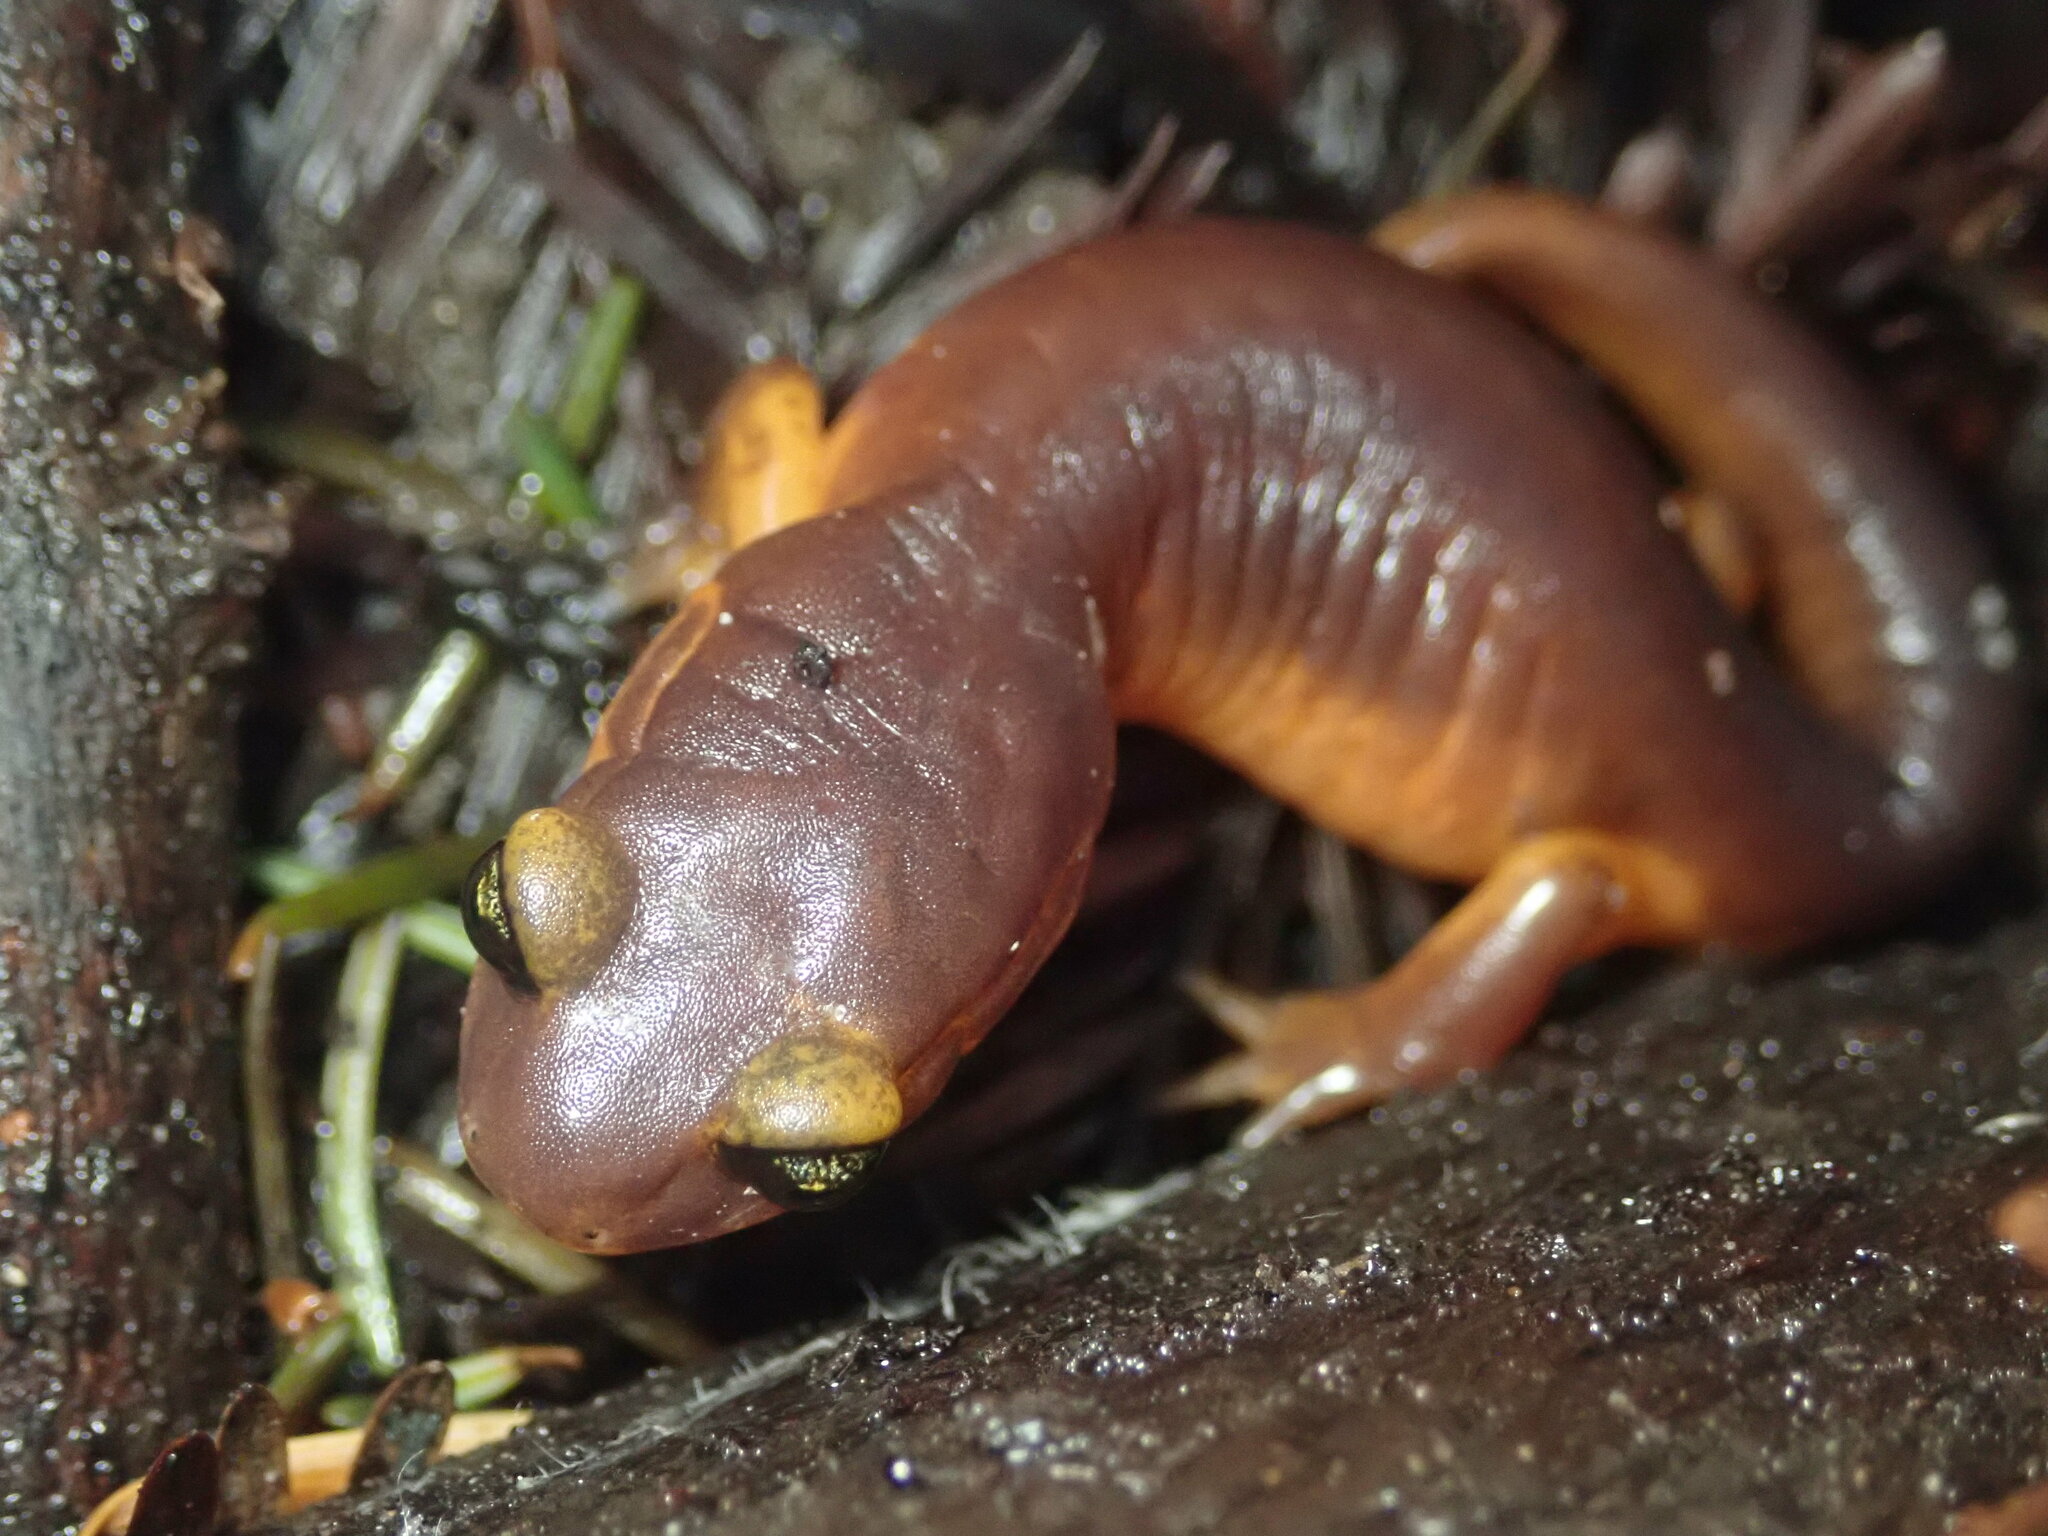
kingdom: Animalia
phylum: Chordata
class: Amphibia
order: Caudata
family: Plethodontidae
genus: Ensatina
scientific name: Ensatina eschscholtzii
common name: Ensatina
